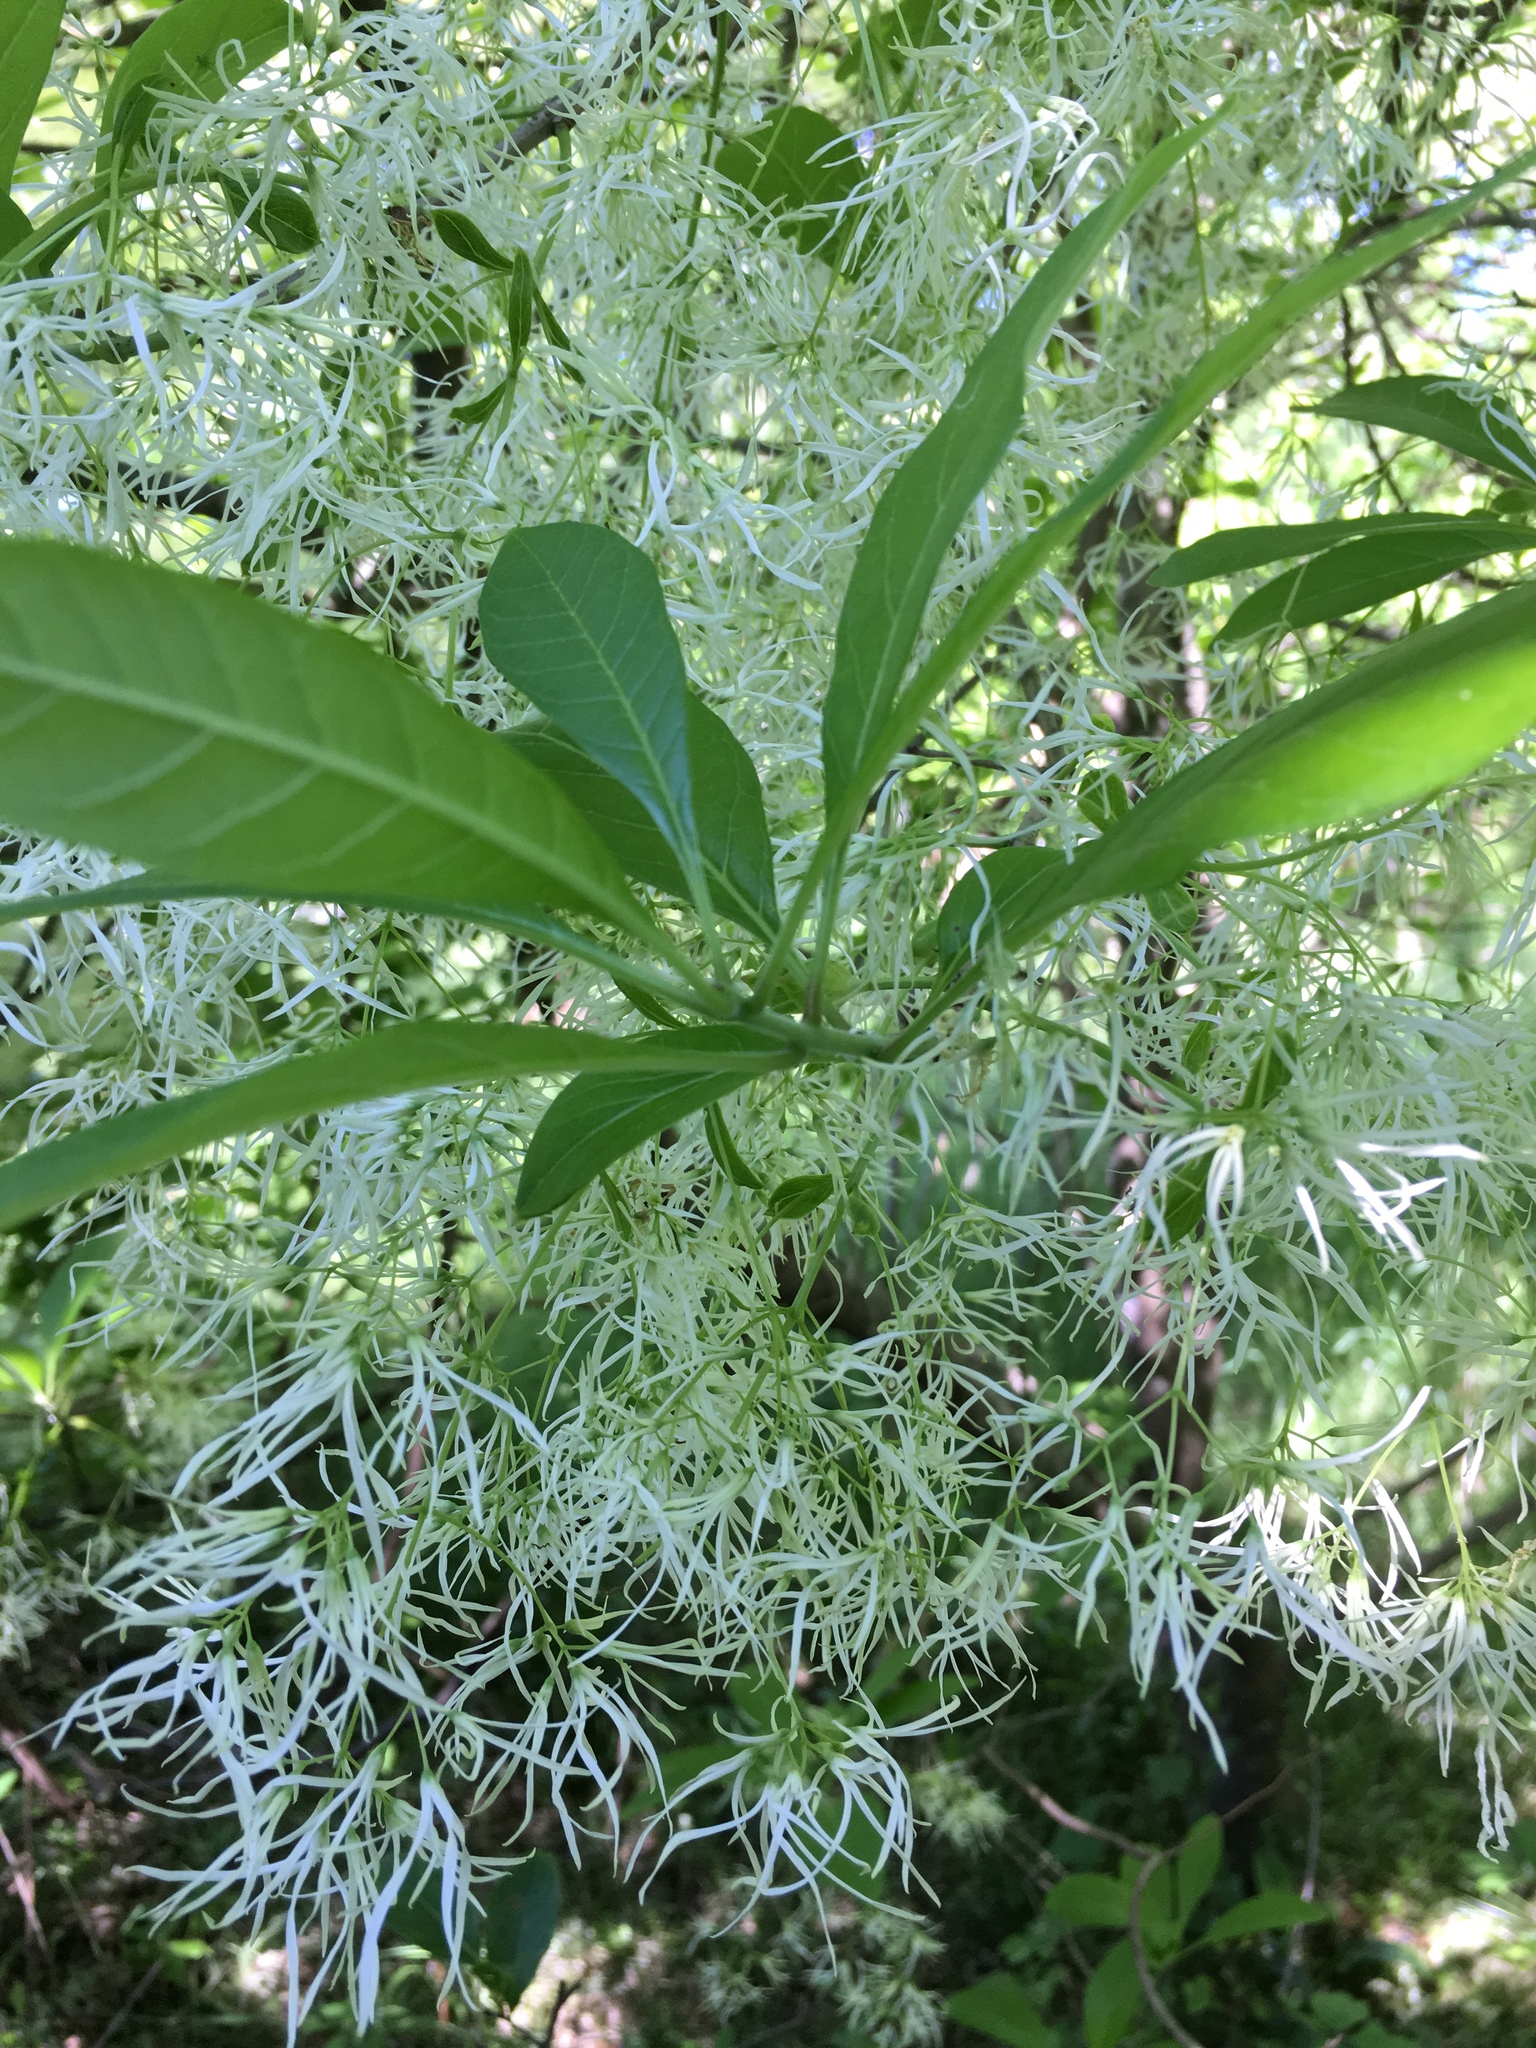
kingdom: Plantae
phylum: Tracheophyta
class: Magnoliopsida
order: Lamiales
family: Oleaceae
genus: Chionanthus
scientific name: Chionanthus virginicus
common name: American fringetree
